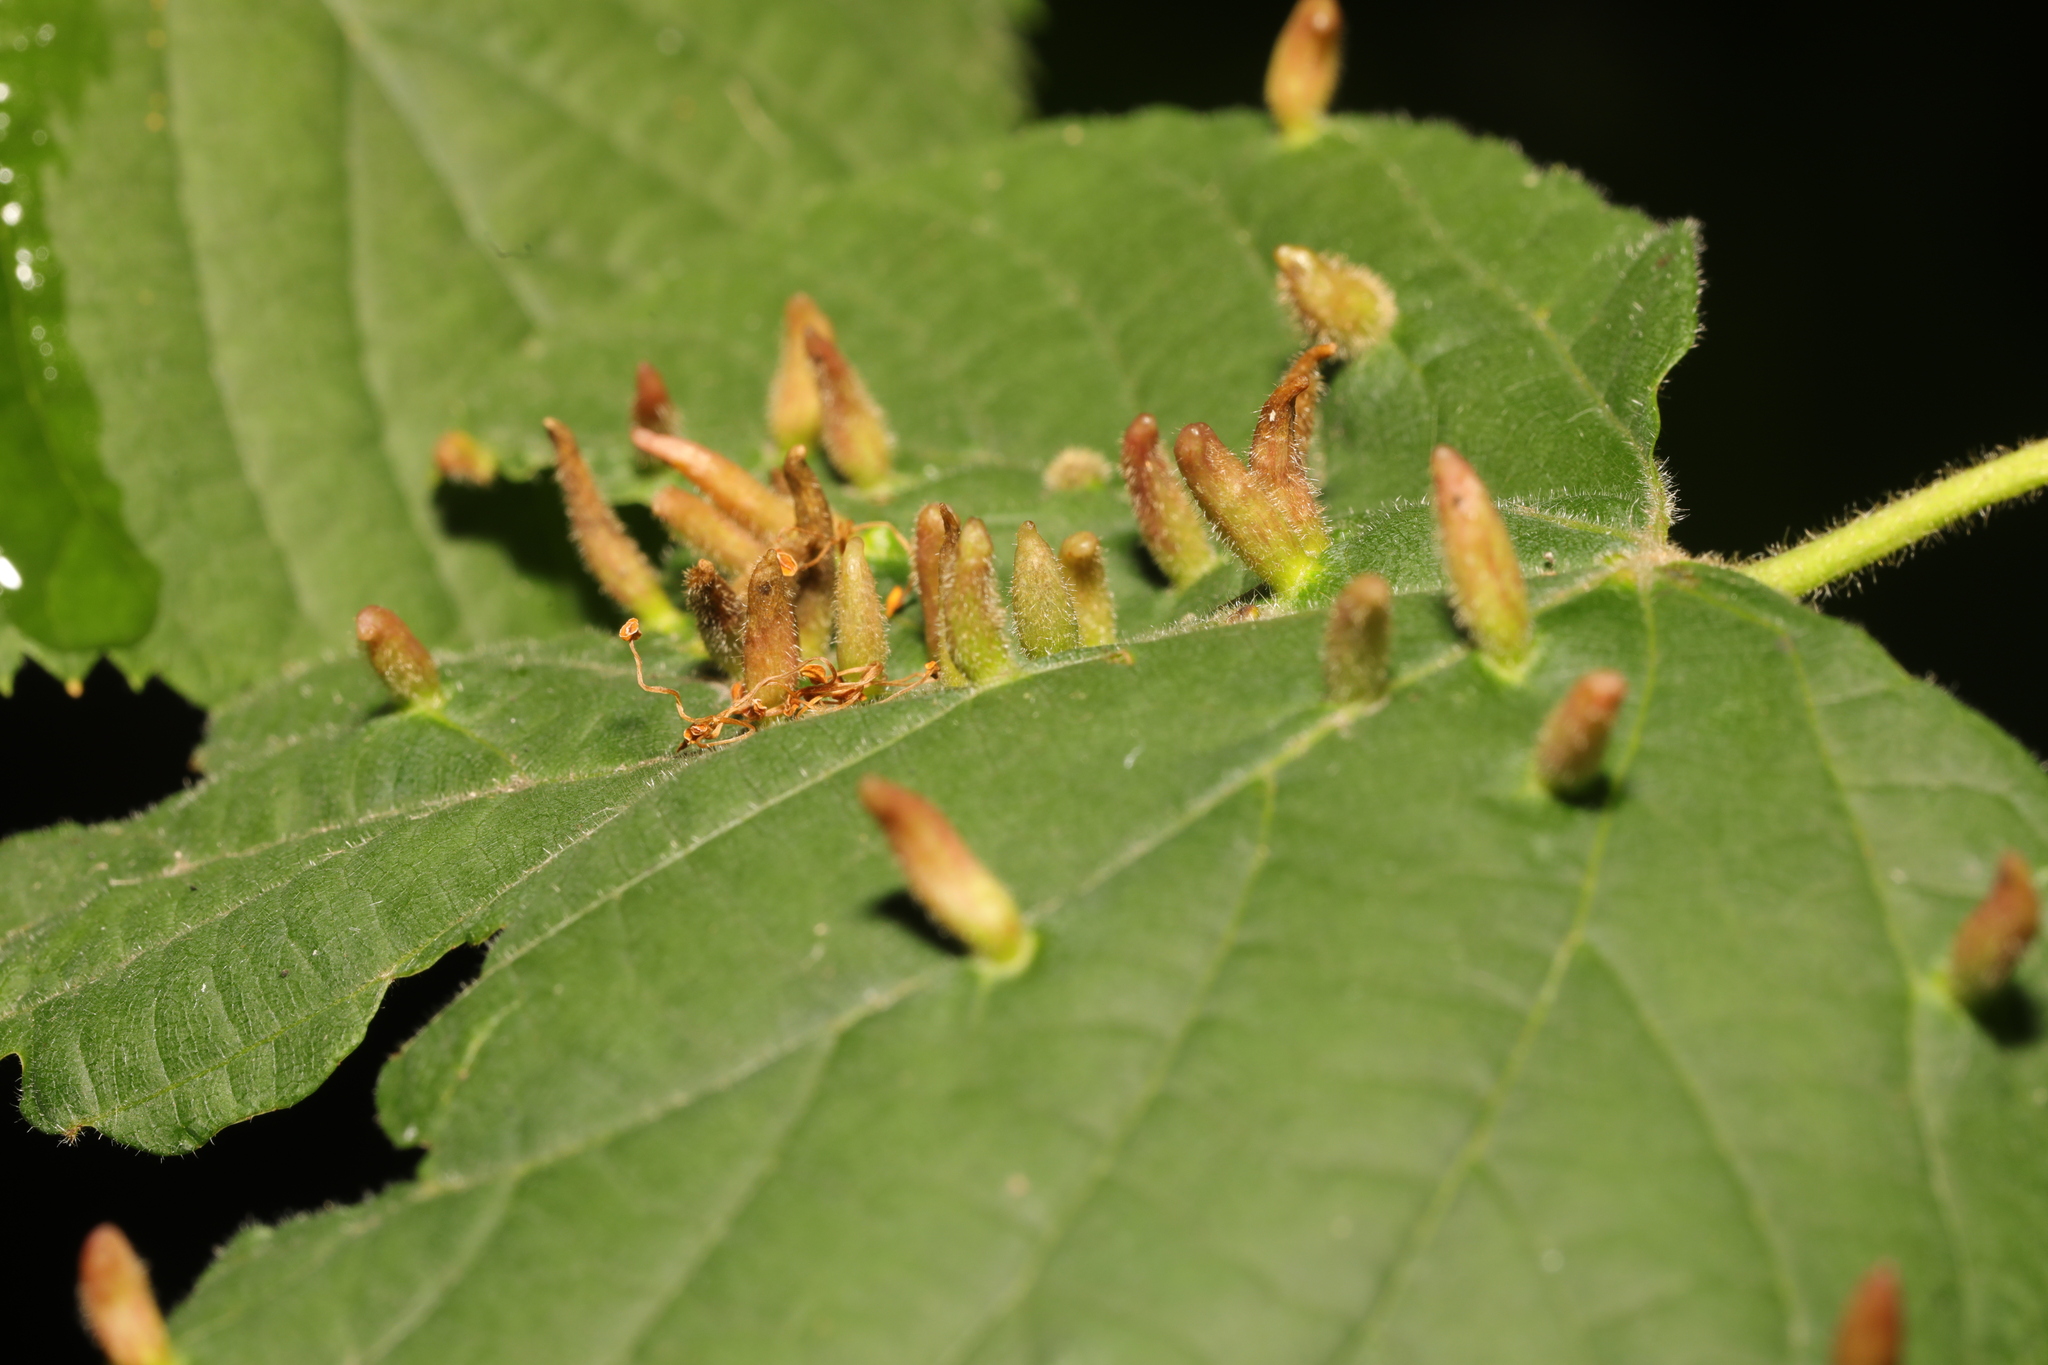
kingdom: Animalia
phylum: Arthropoda
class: Arachnida
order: Trombidiformes
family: Eriophyidae
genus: Eriophyes
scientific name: Eriophyes tiliae
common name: Red nail gall mite
